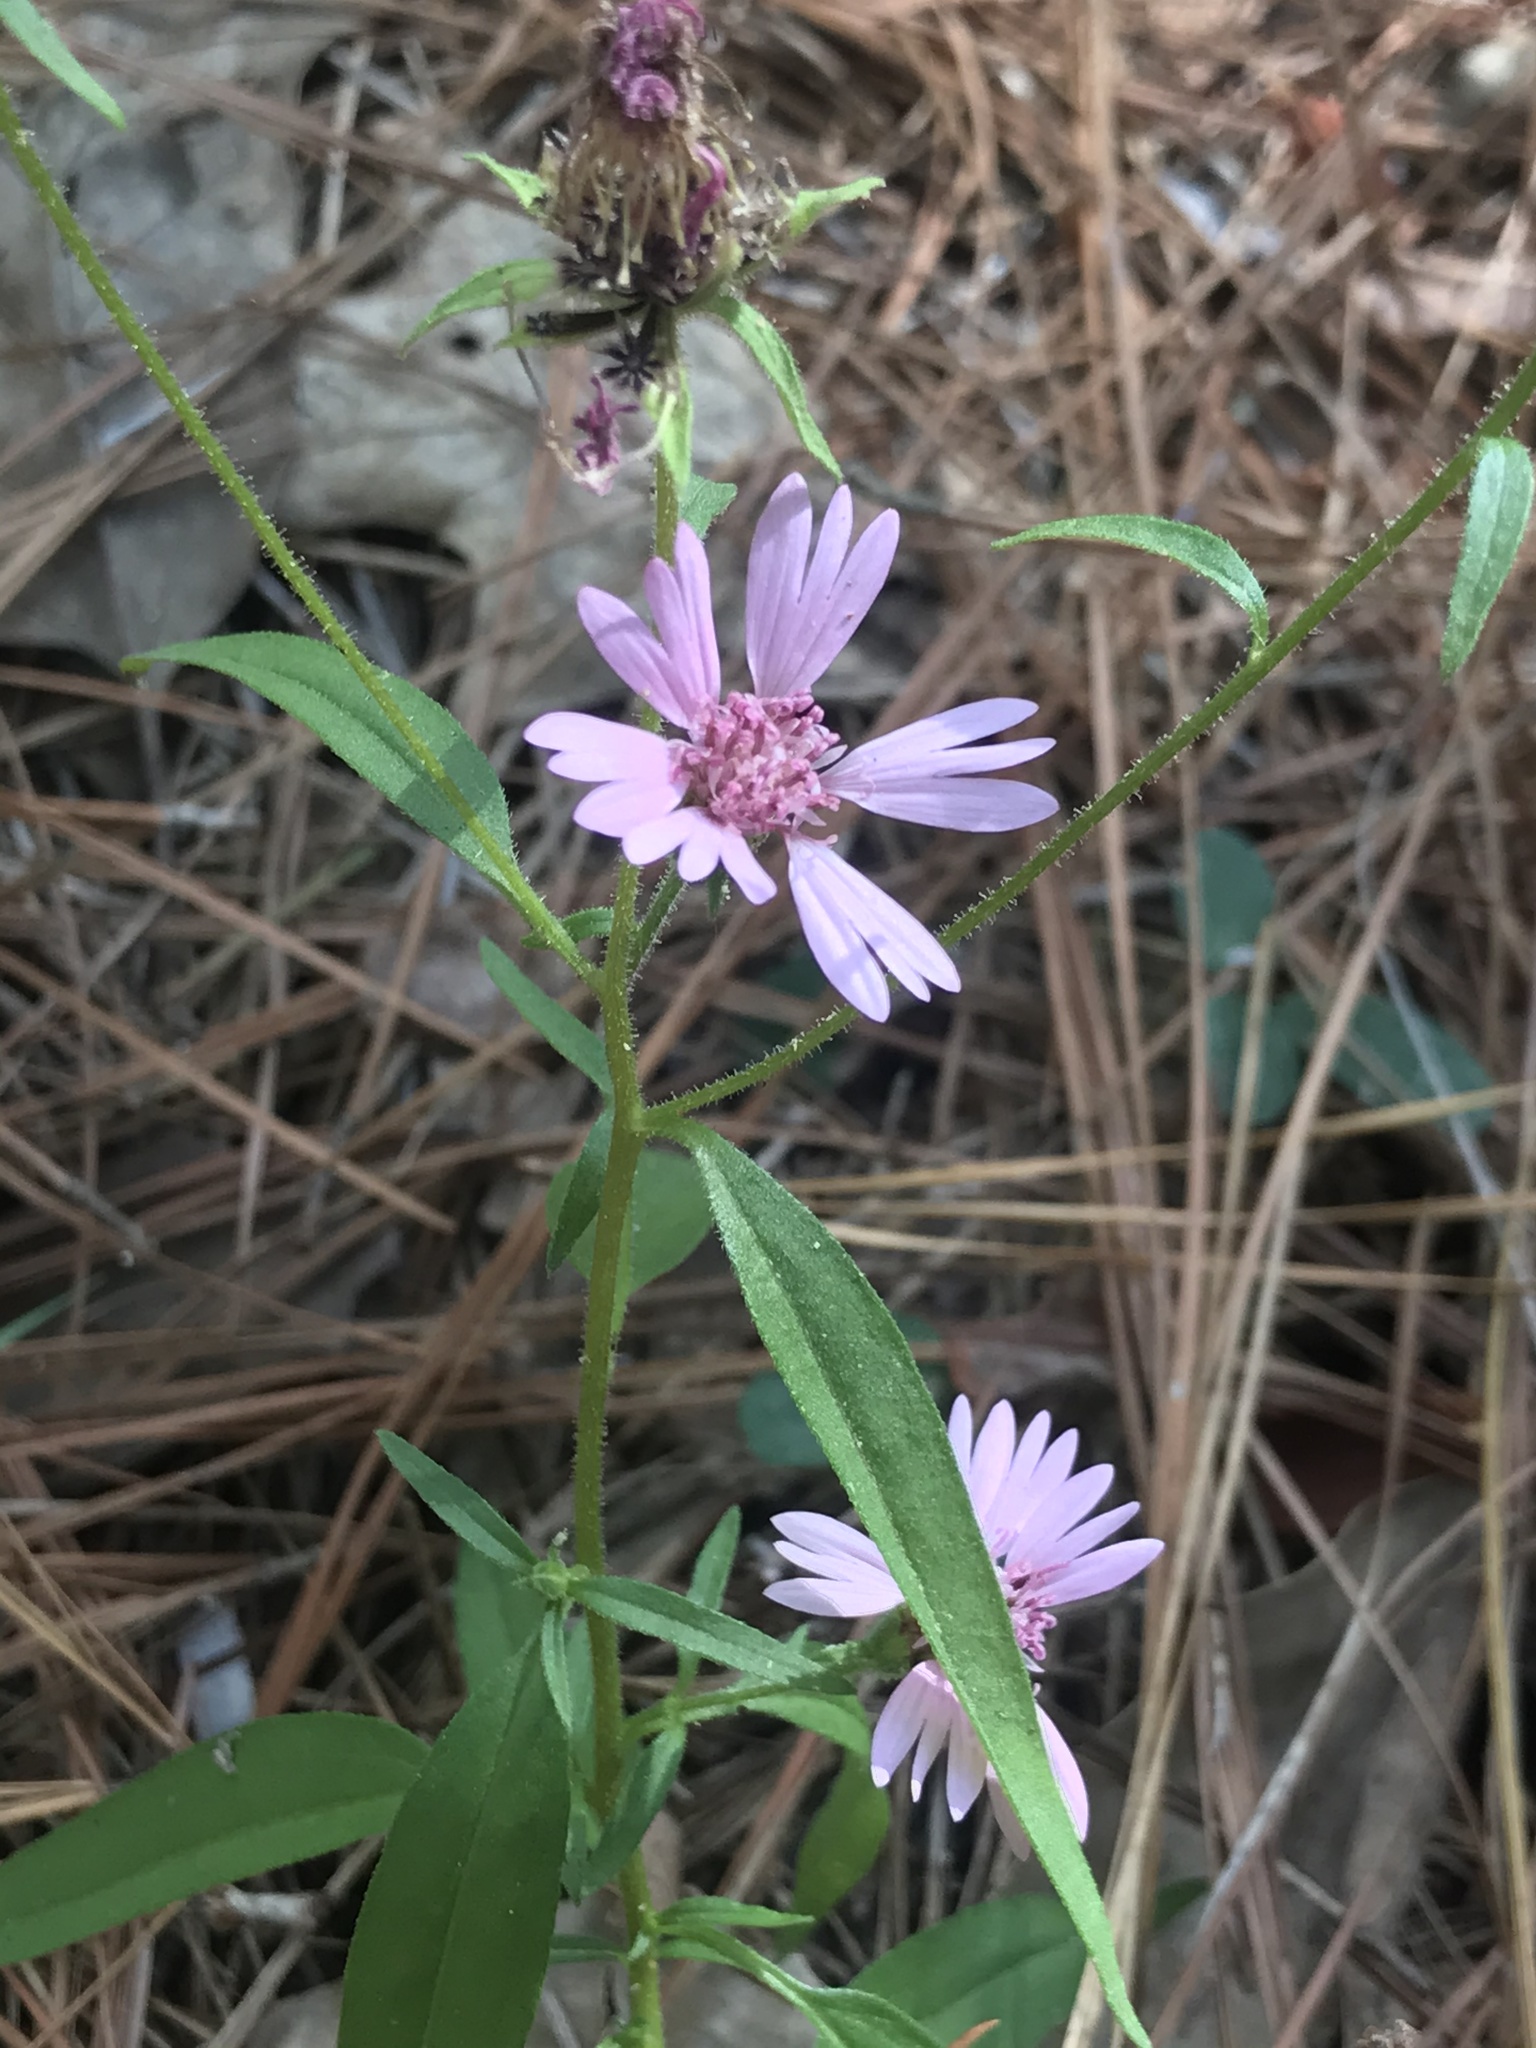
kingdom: Plantae
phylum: Tracheophyta
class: Magnoliopsida
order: Asterales
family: Asteraceae
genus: Palafoxia
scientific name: Palafoxia hookeriana
